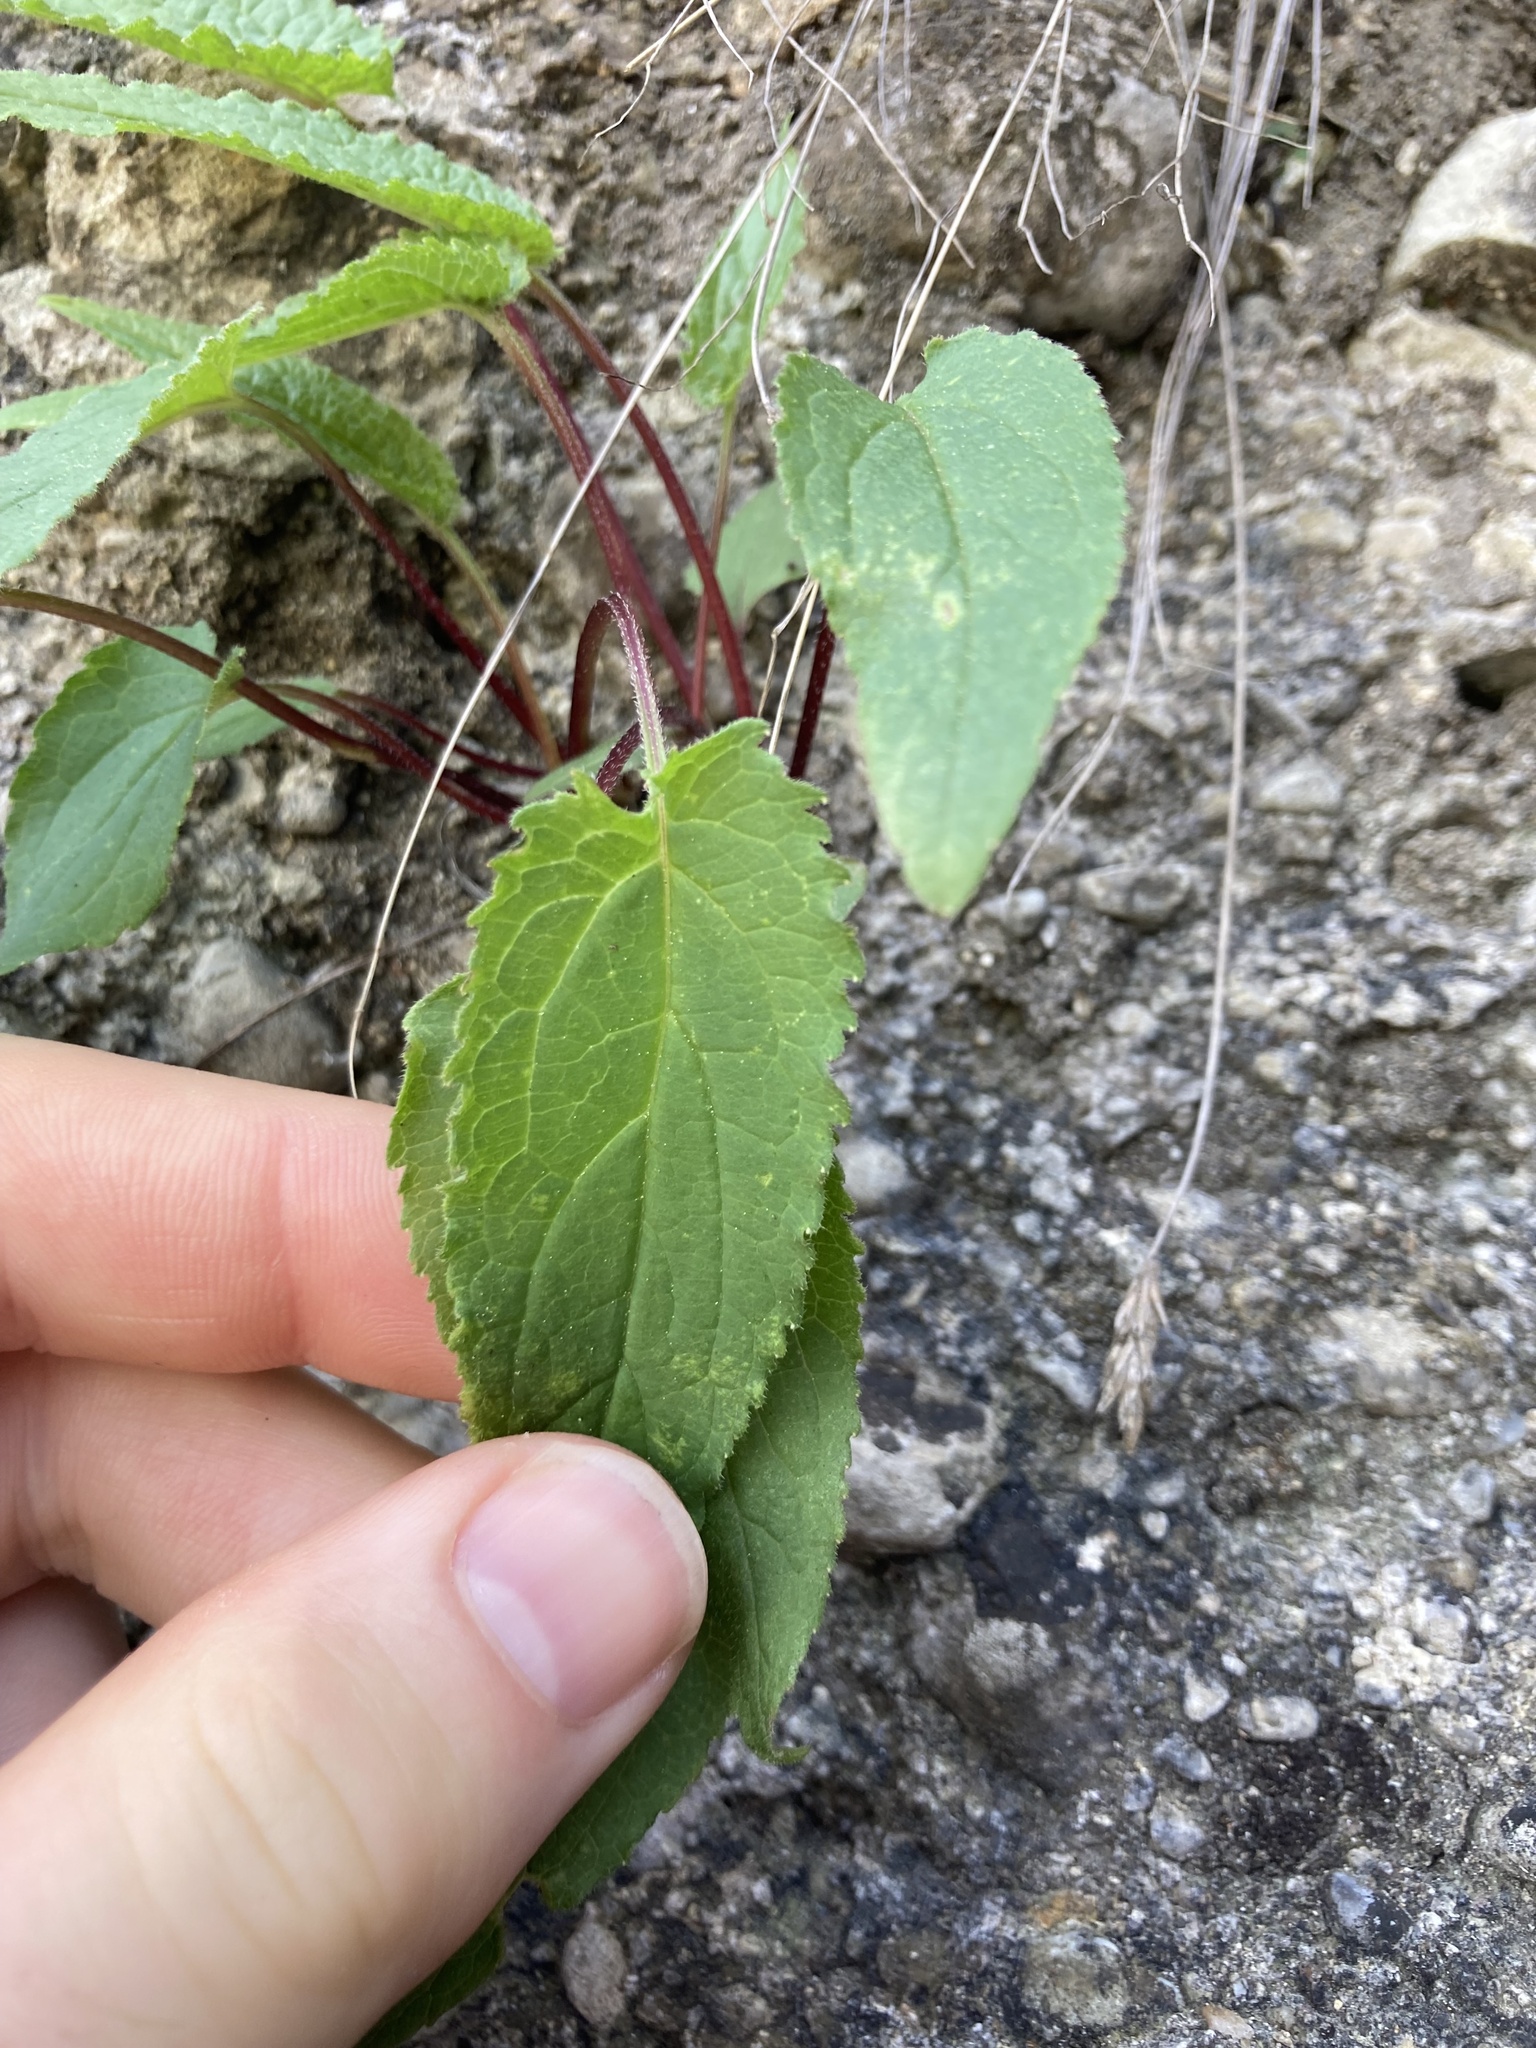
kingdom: Plantae
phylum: Tracheophyta
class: Magnoliopsida
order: Asterales
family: Campanulaceae
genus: Campanula
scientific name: Campanula rapunculoides
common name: Creeping bellflower
